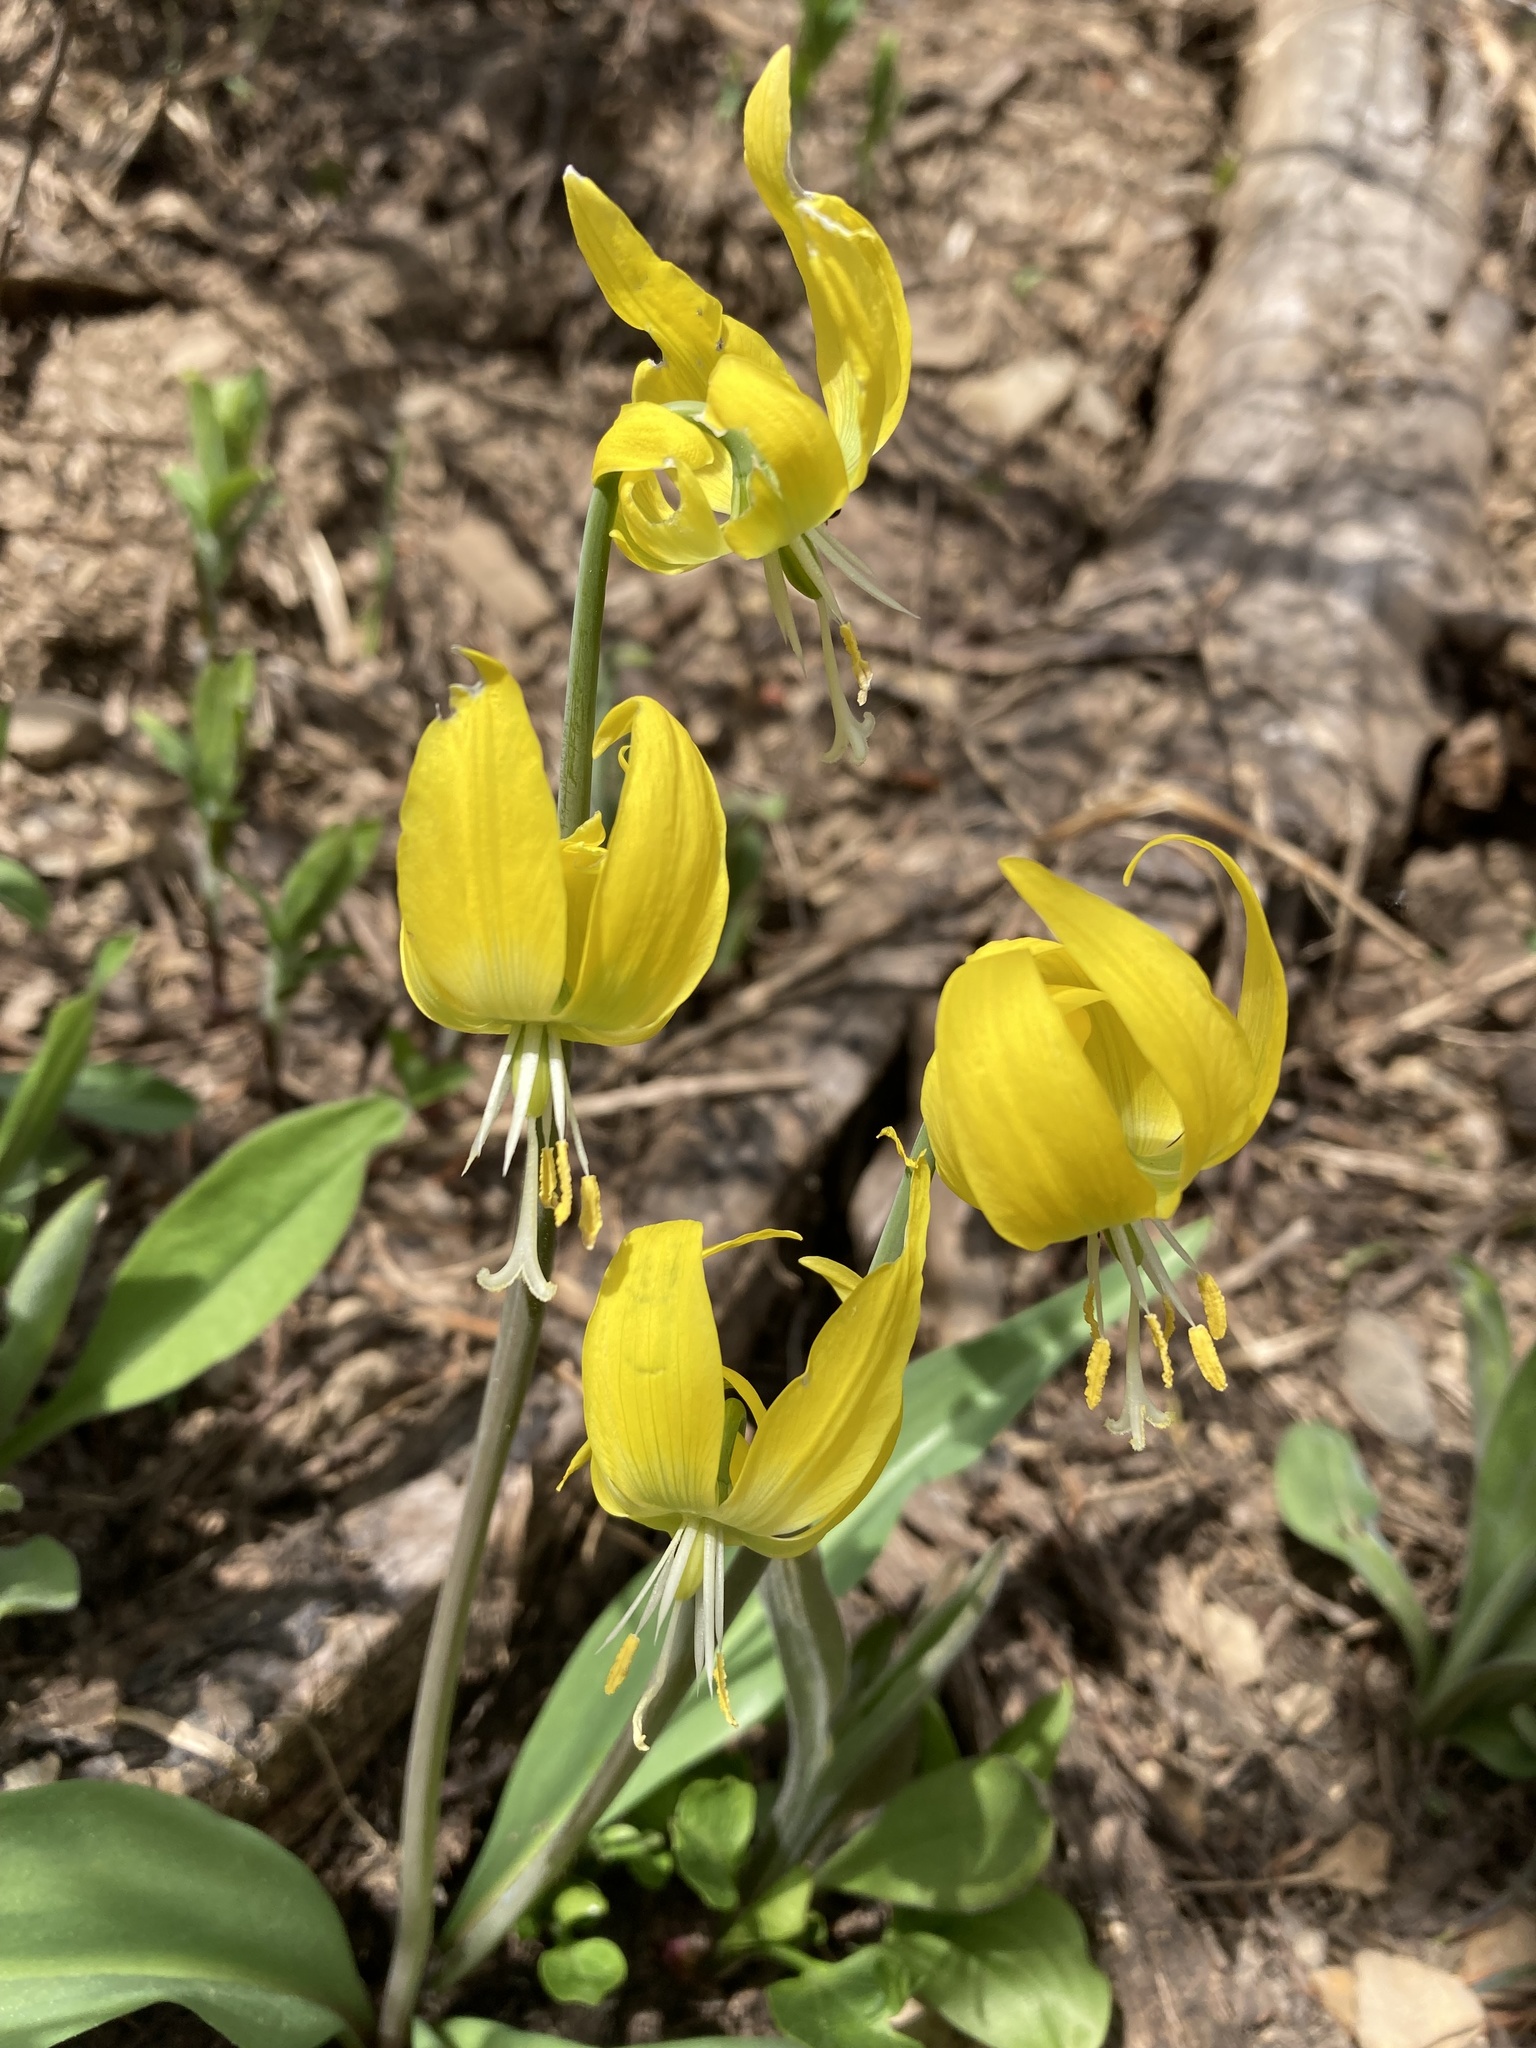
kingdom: Plantae
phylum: Tracheophyta
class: Liliopsida
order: Liliales
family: Liliaceae
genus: Erythronium
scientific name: Erythronium grandiflorum
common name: Avalanche-lily
